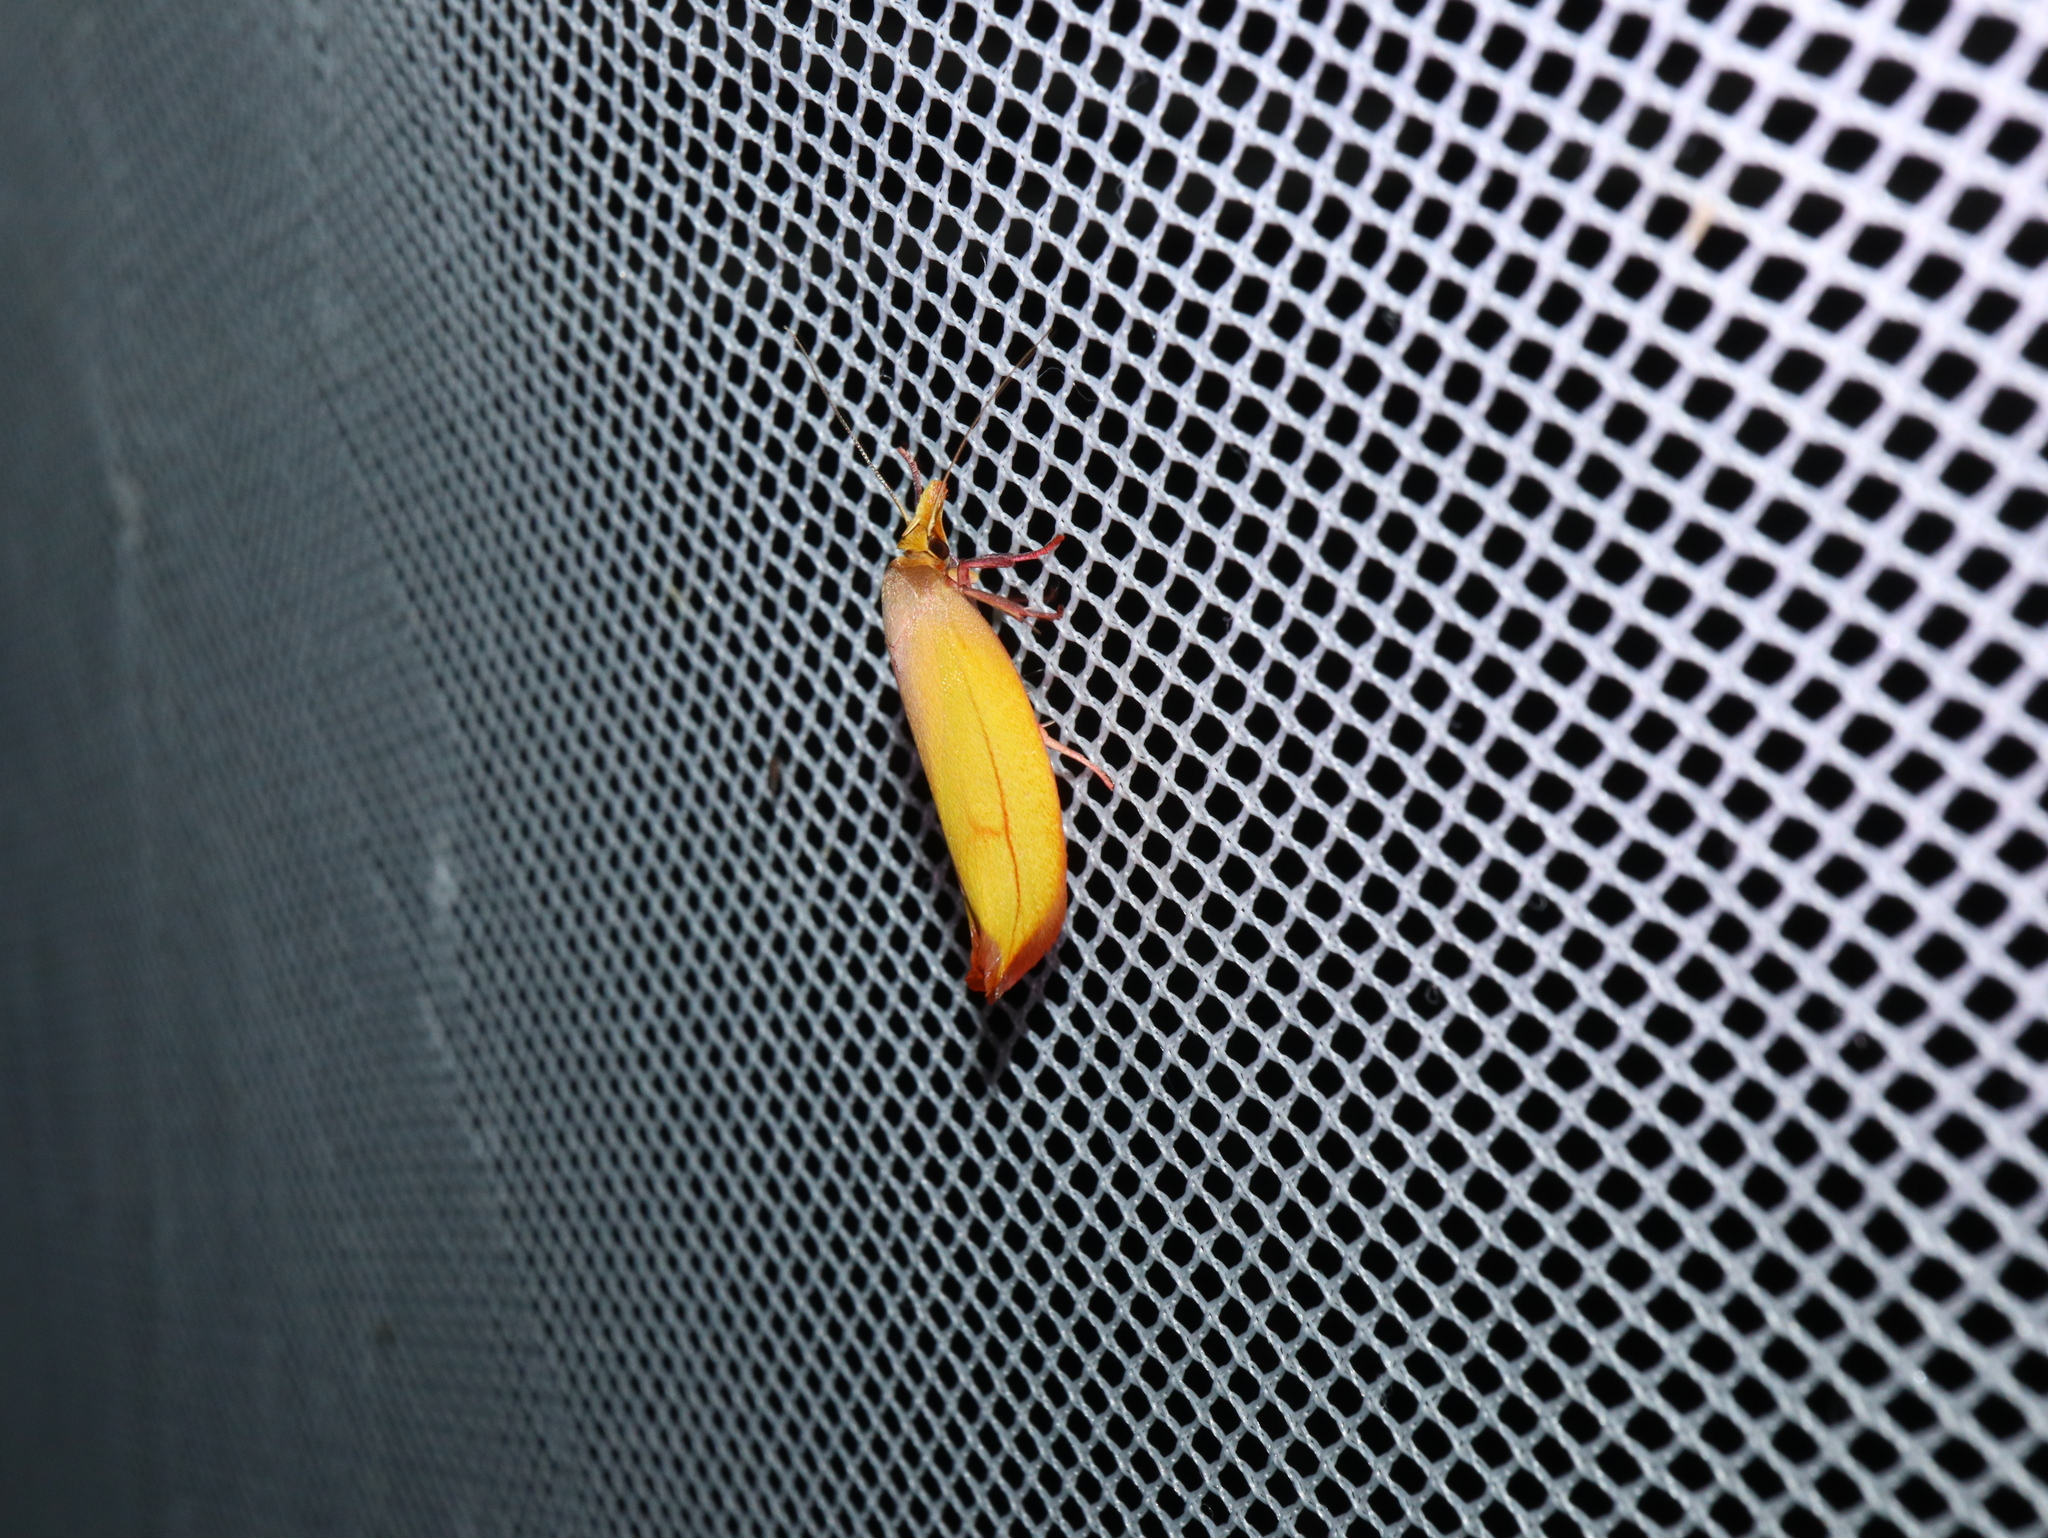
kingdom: Animalia
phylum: Arthropoda
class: Insecta
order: Lepidoptera
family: Oecophoridae
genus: Wingia
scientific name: Wingia aurata
